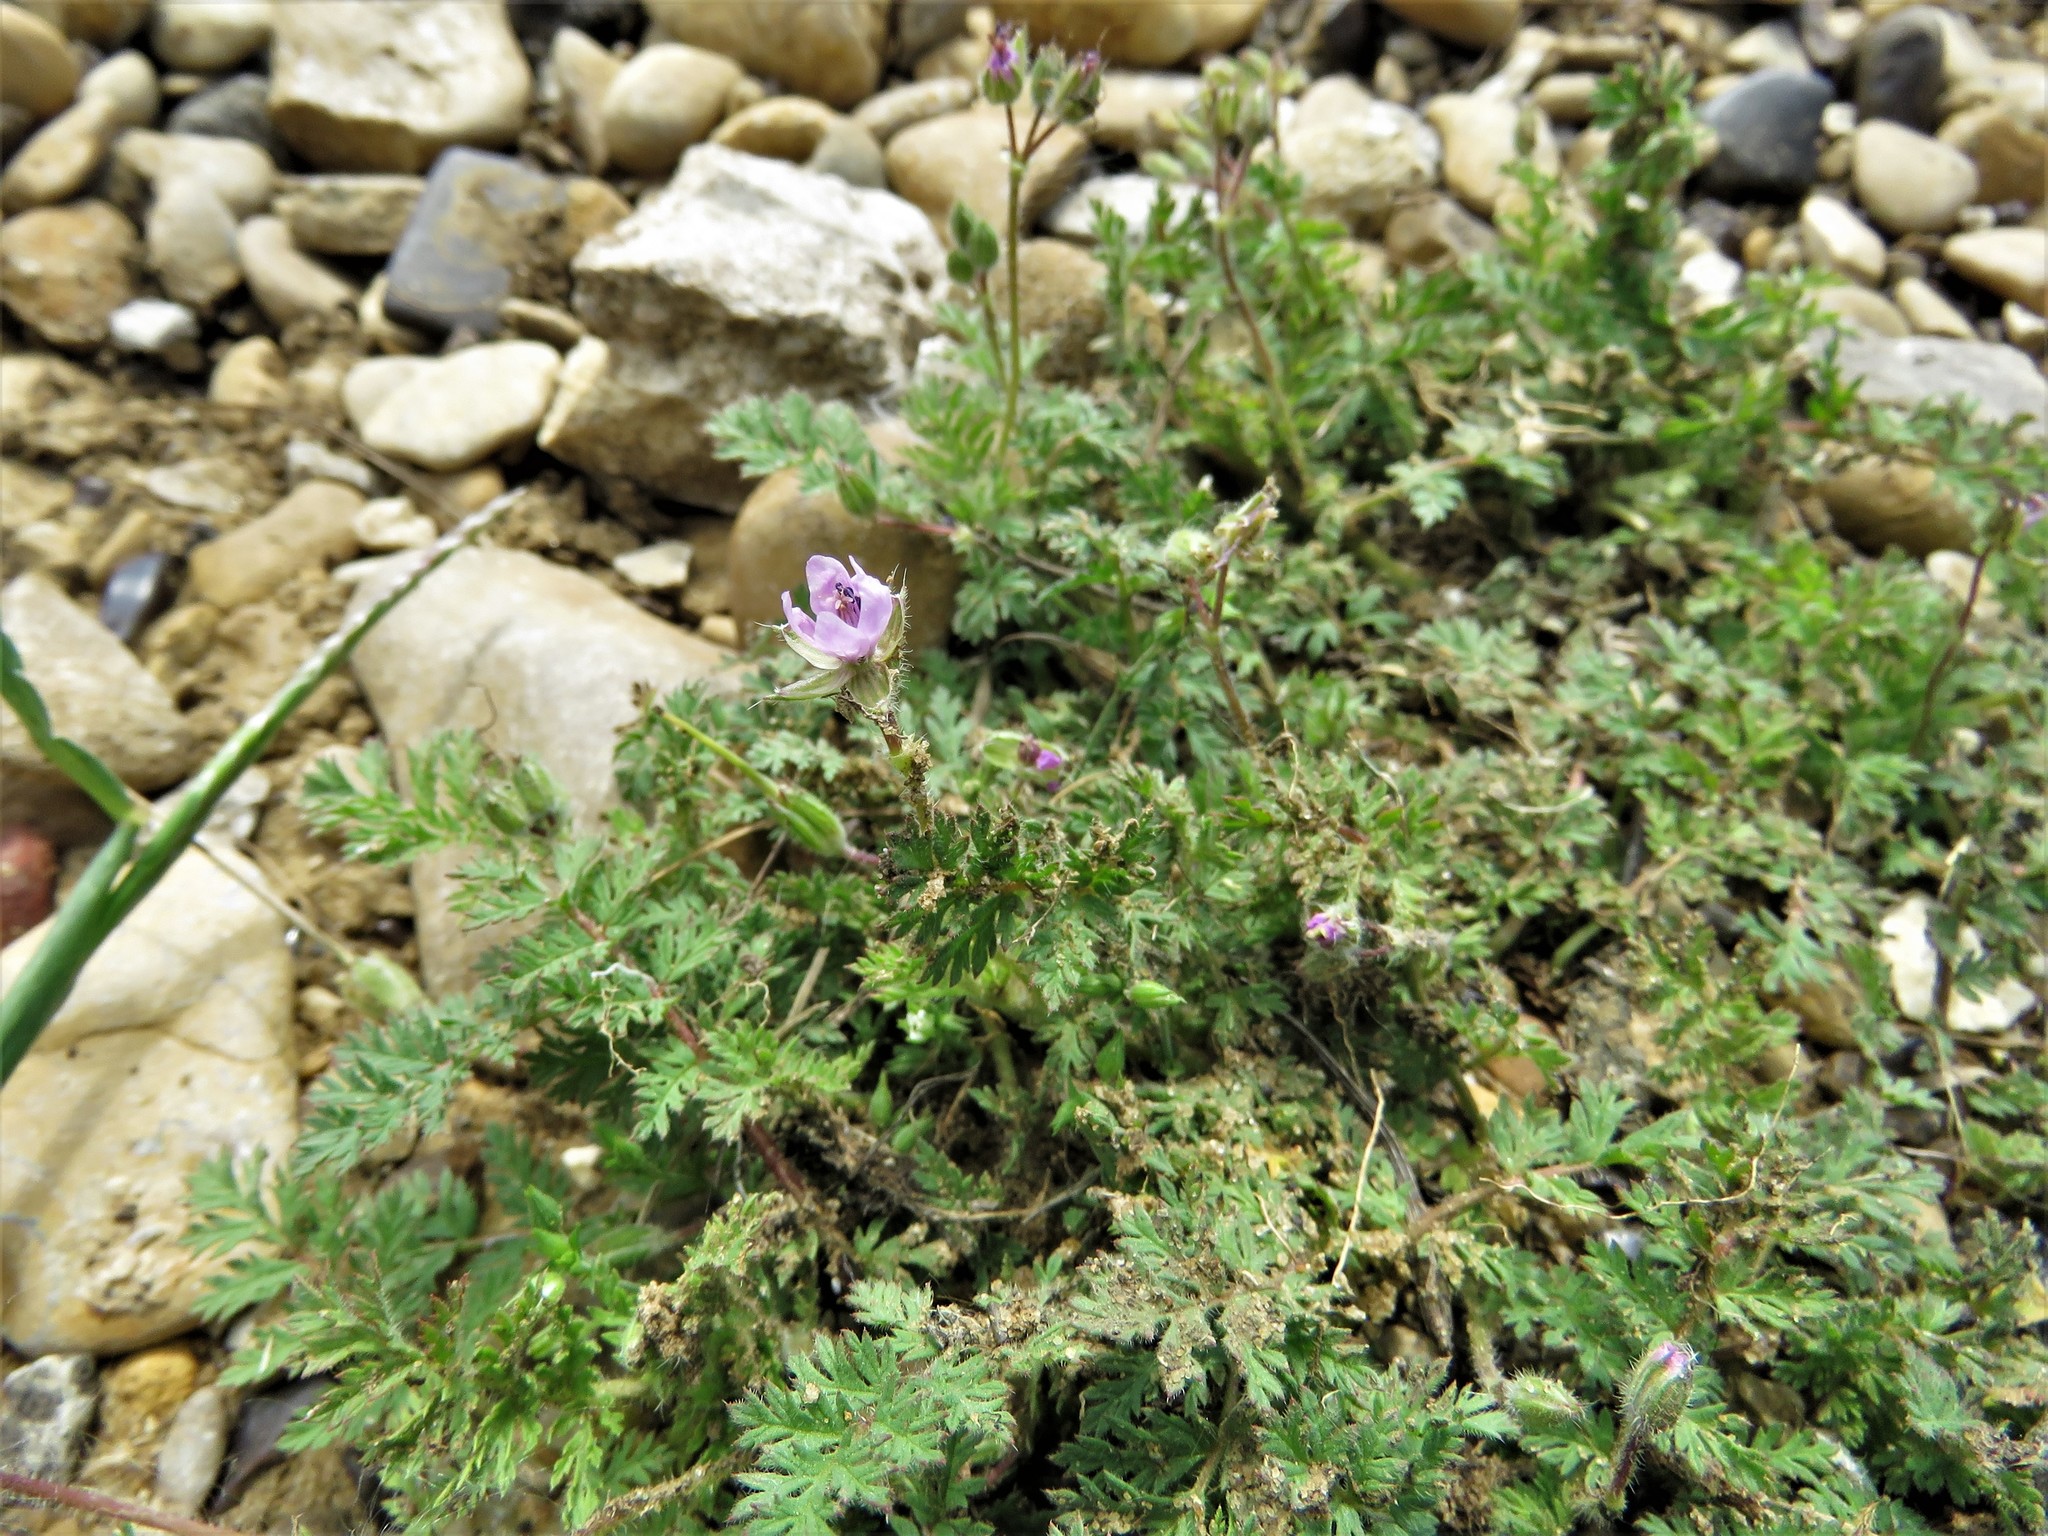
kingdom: Plantae
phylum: Tracheophyta
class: Magnoliopsida
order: Geraniales
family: Geraniaceae
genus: Erodium
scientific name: Erodium cicutarium
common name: Common stork's-bill
